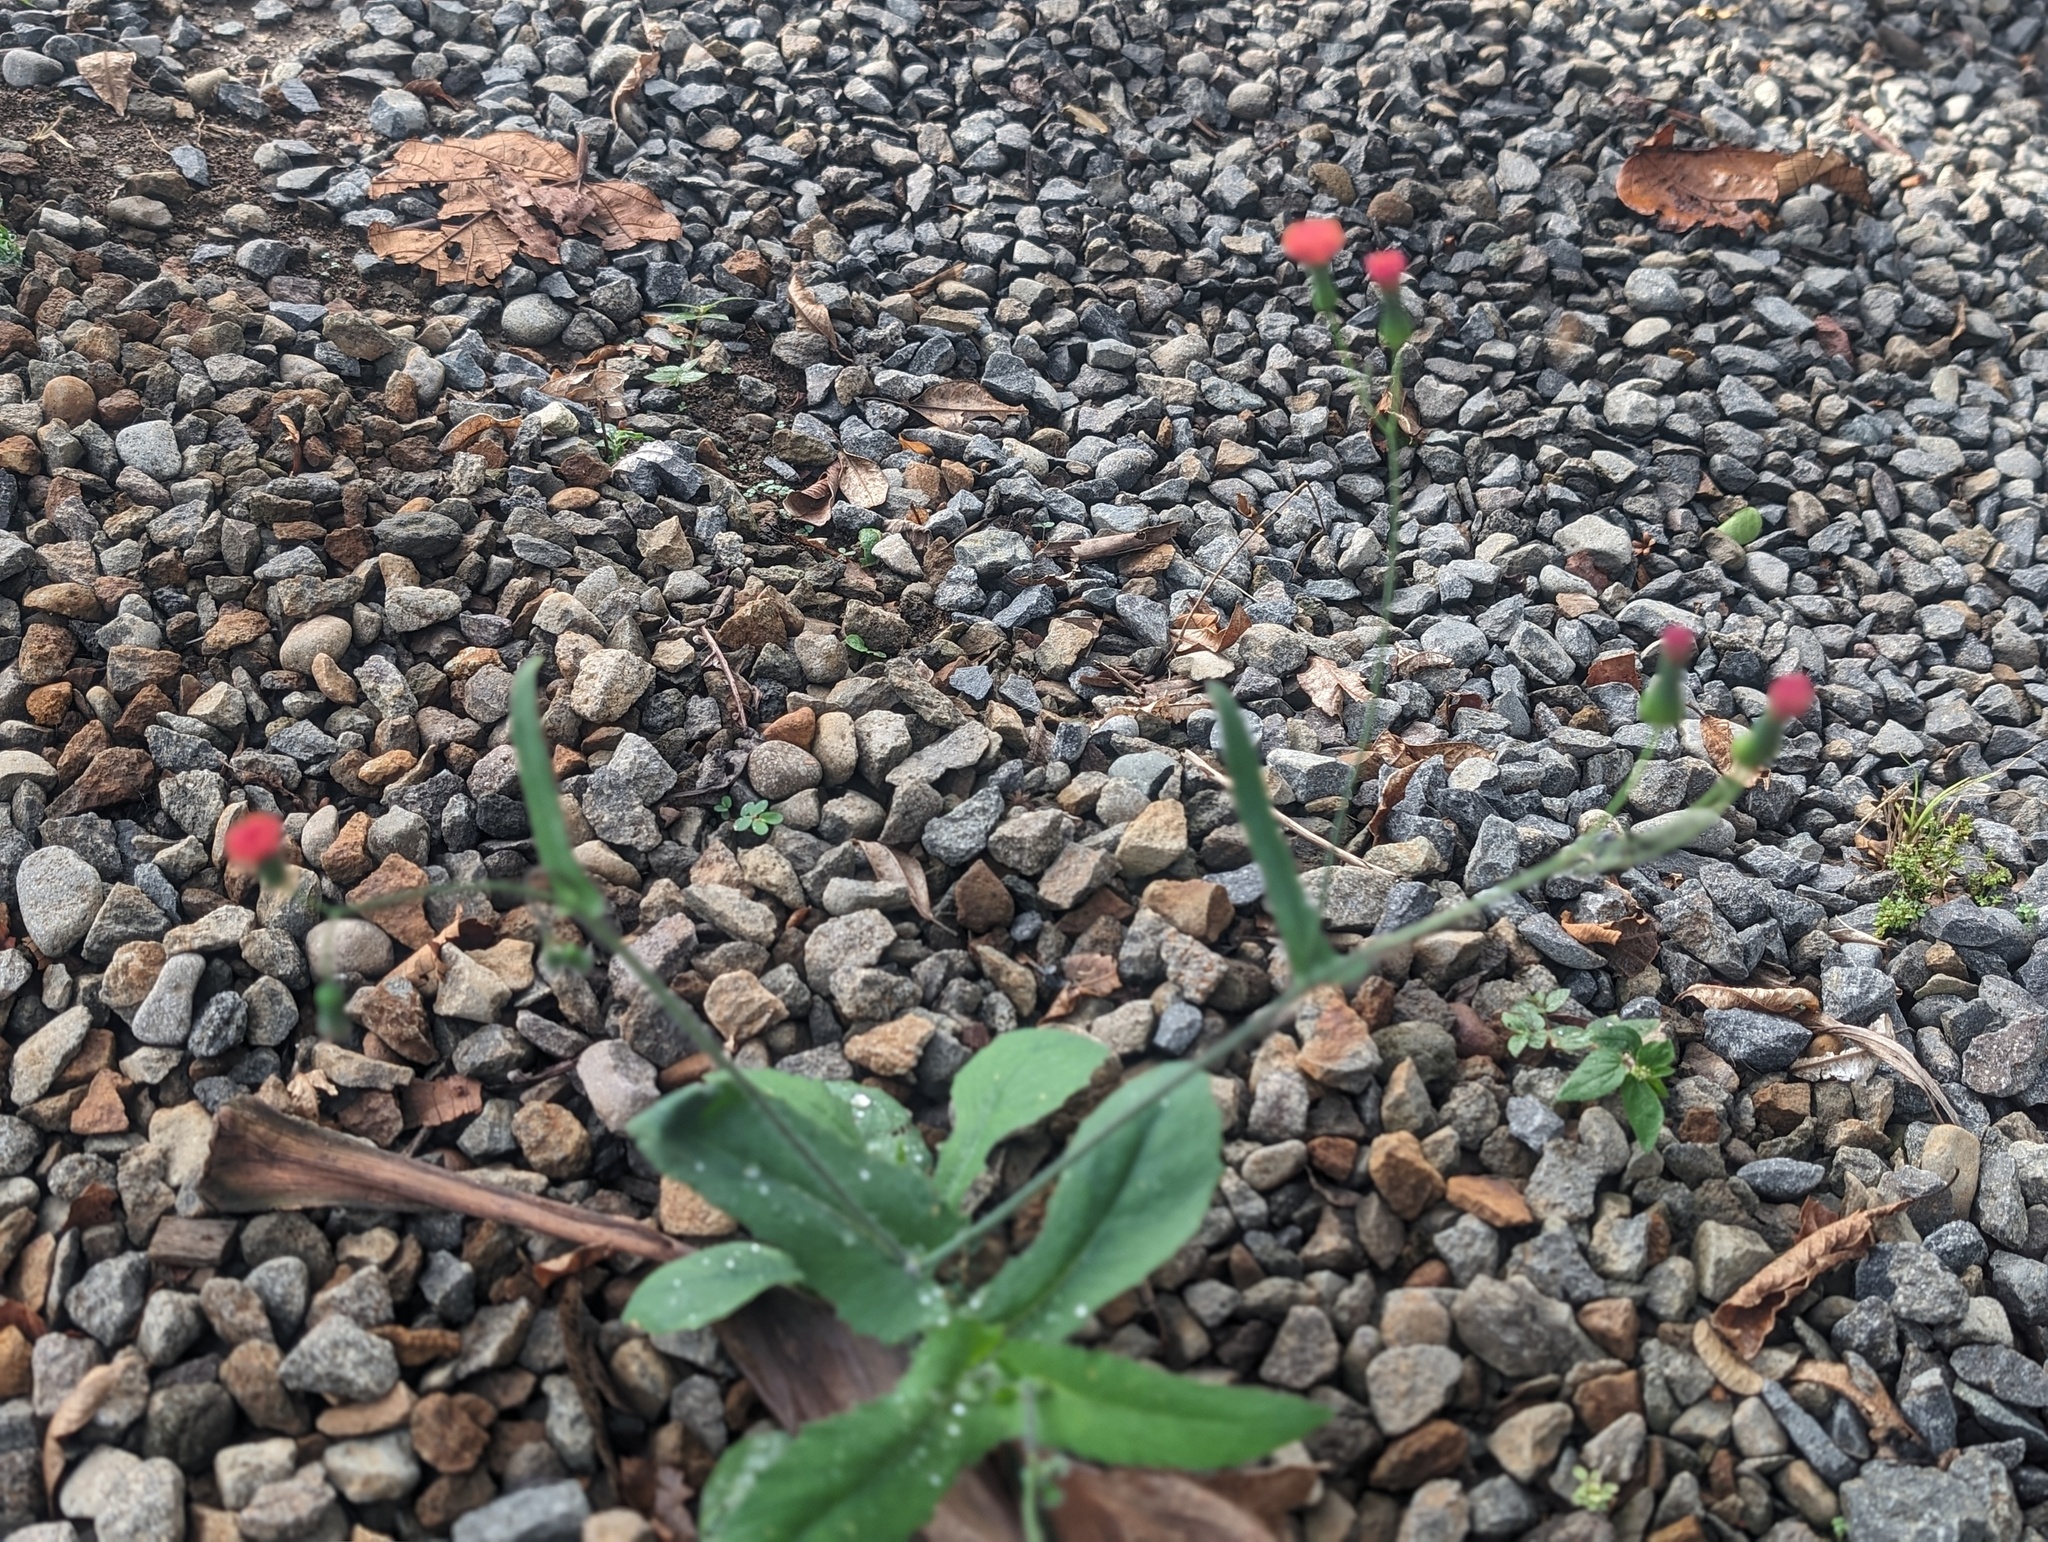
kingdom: Plantae
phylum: Tracheophyta
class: Magnoliopsida
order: Asterales
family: Asteraceae
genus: Emilia
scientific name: Emilia fosbergii
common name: Florida tasselflower
